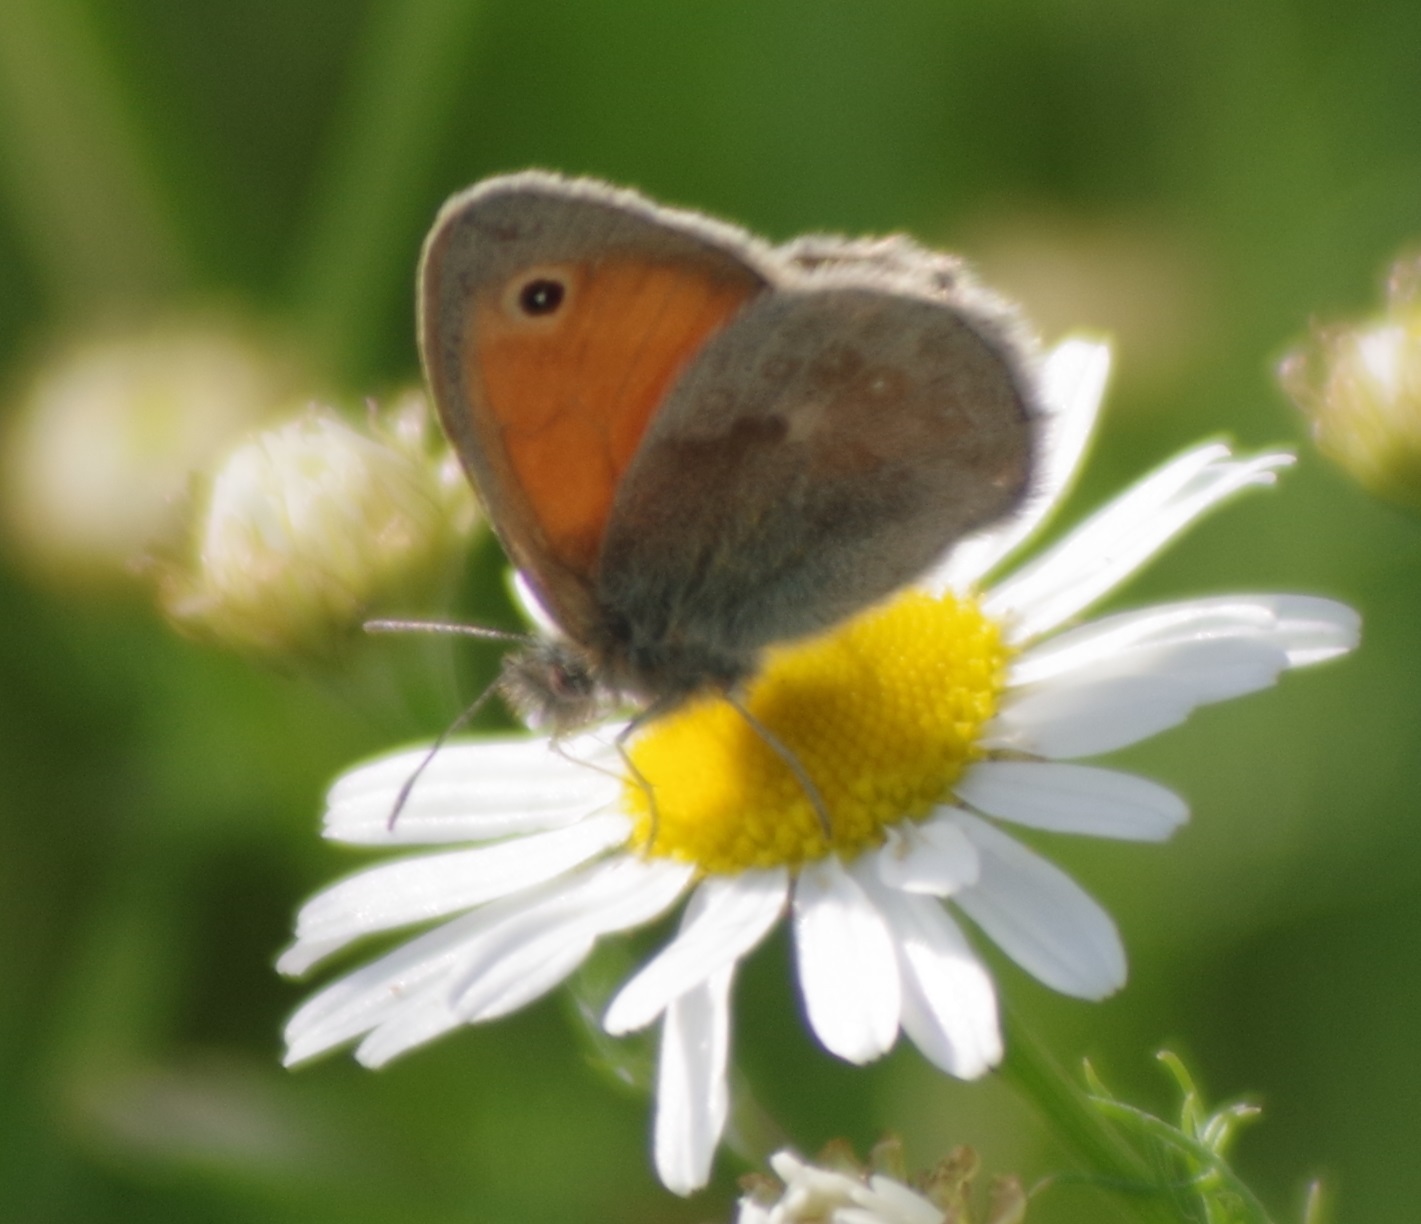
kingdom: Animalia
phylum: Arthropoda
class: Insecta
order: Lepidoptera
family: Nymphalidae
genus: Coenonympha
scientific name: Coenonympha pamphilus
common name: Small heath
